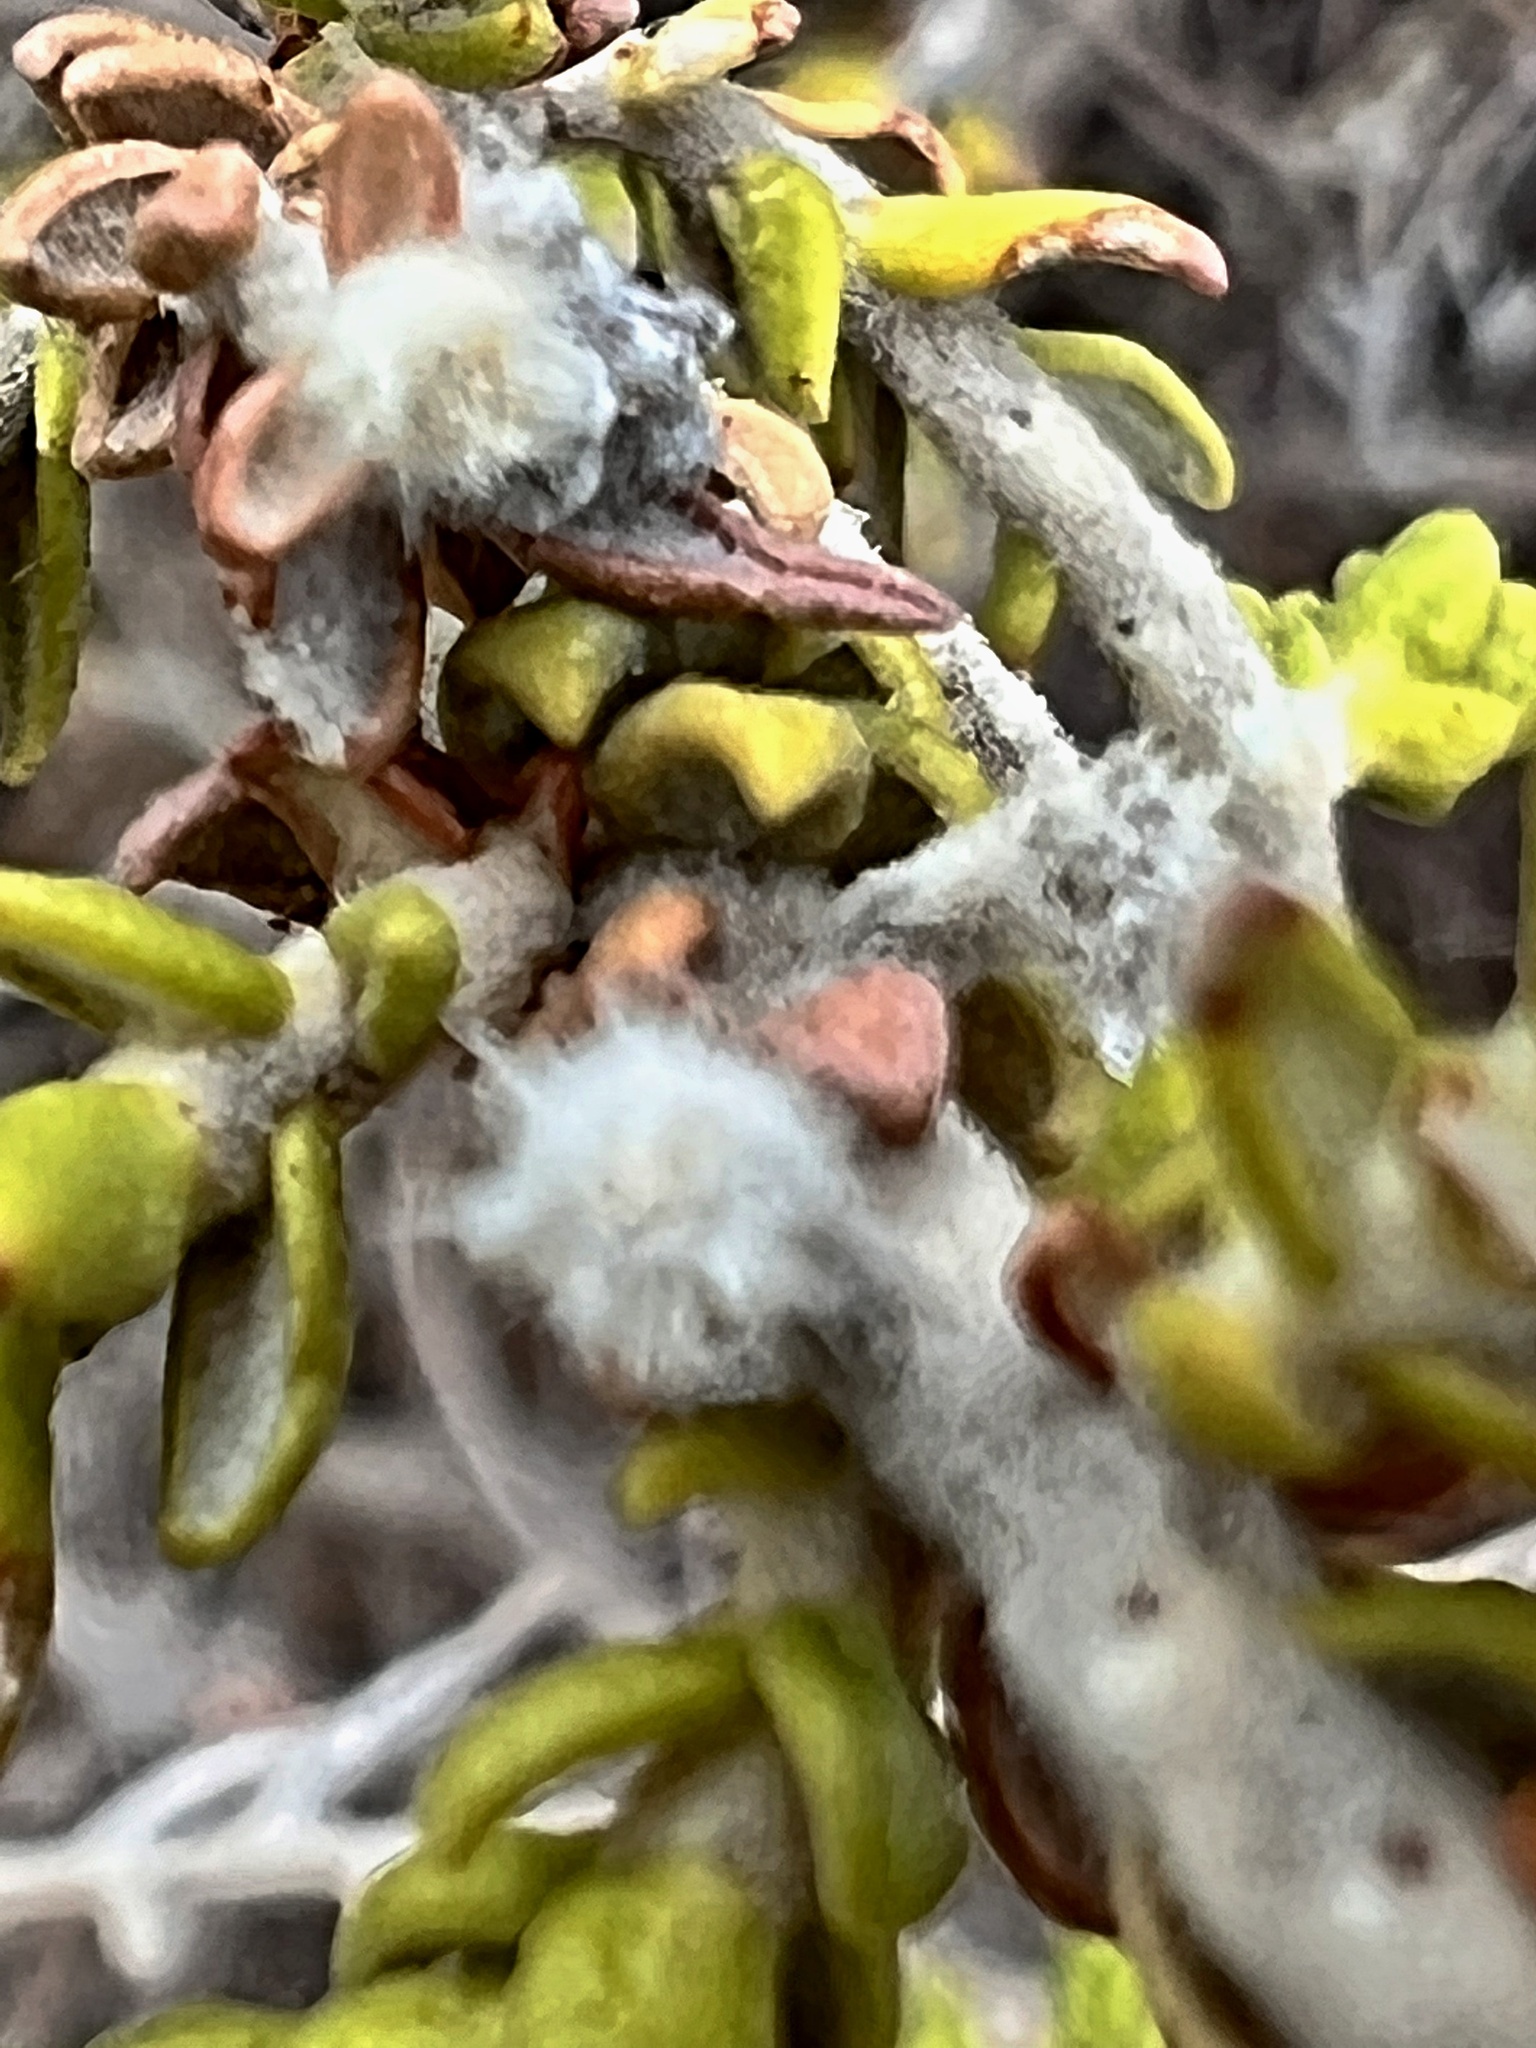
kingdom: Plantae
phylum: Tracheophyta
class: Magnoliopsida
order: Malvales
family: Thymelaeaceae
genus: Thymelaea
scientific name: Thymelaea hirsuta
